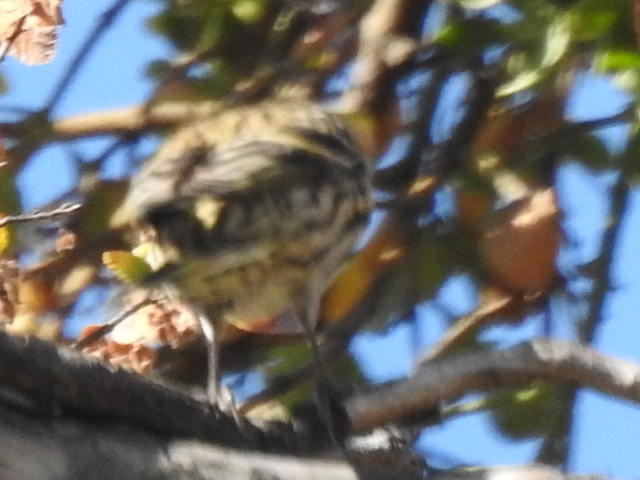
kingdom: Animalia
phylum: Chordata
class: Aves
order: Passeriformes
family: Fringillidae
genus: Spinus
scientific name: Spinus pinus
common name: Pine siskin
